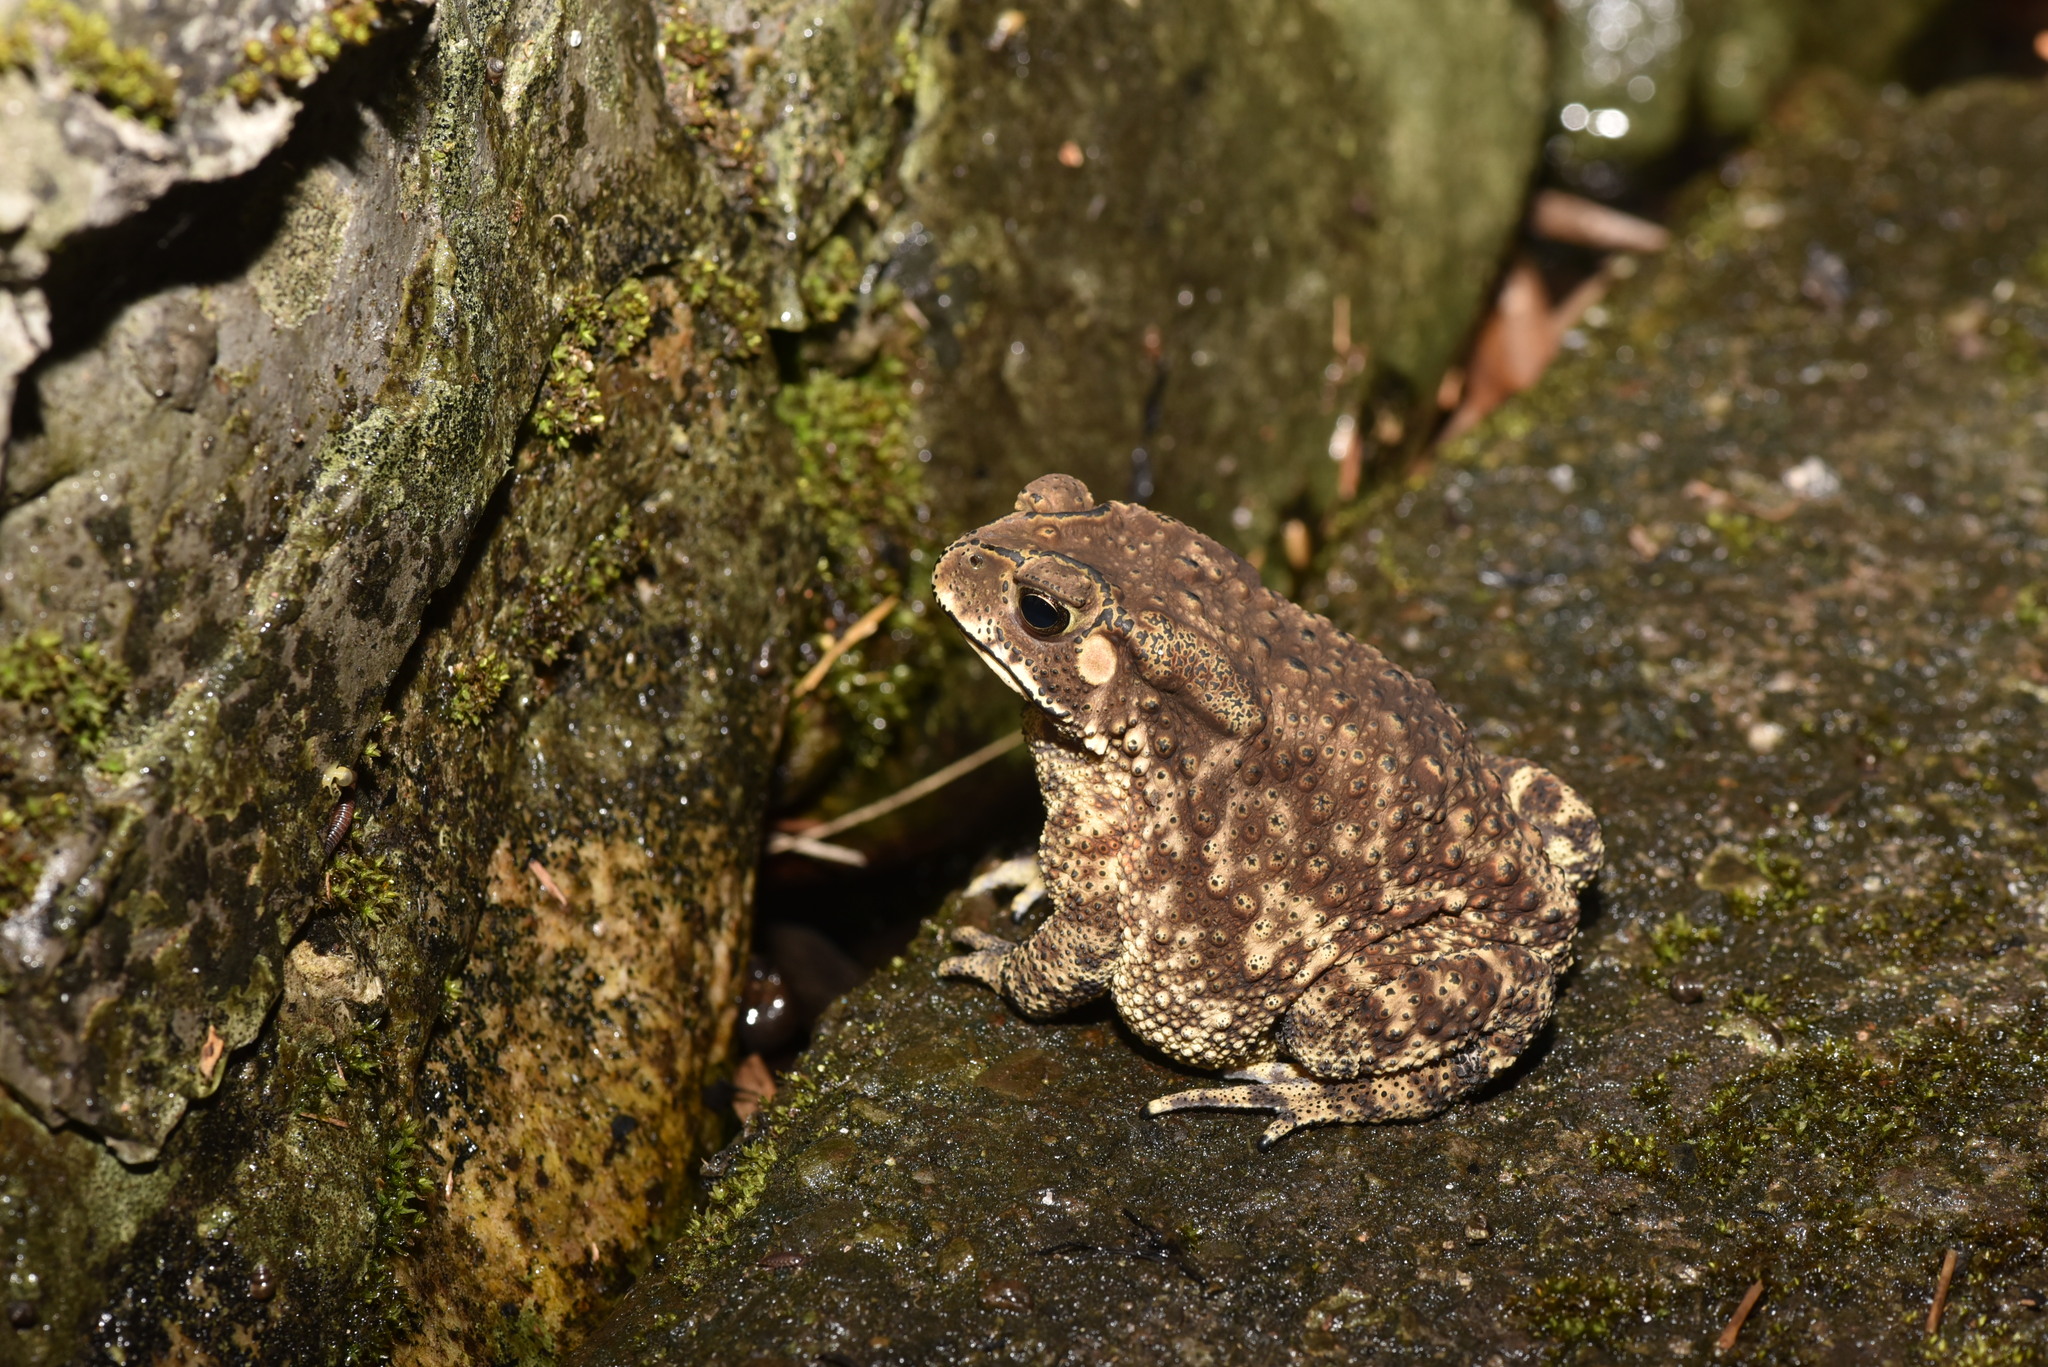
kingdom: Animalia
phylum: Chordata
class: Amphibia
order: Anura
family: Bufonidae
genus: Duttaphrynus
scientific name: Duttaphrynus melanostictus
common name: Common sunda toad
